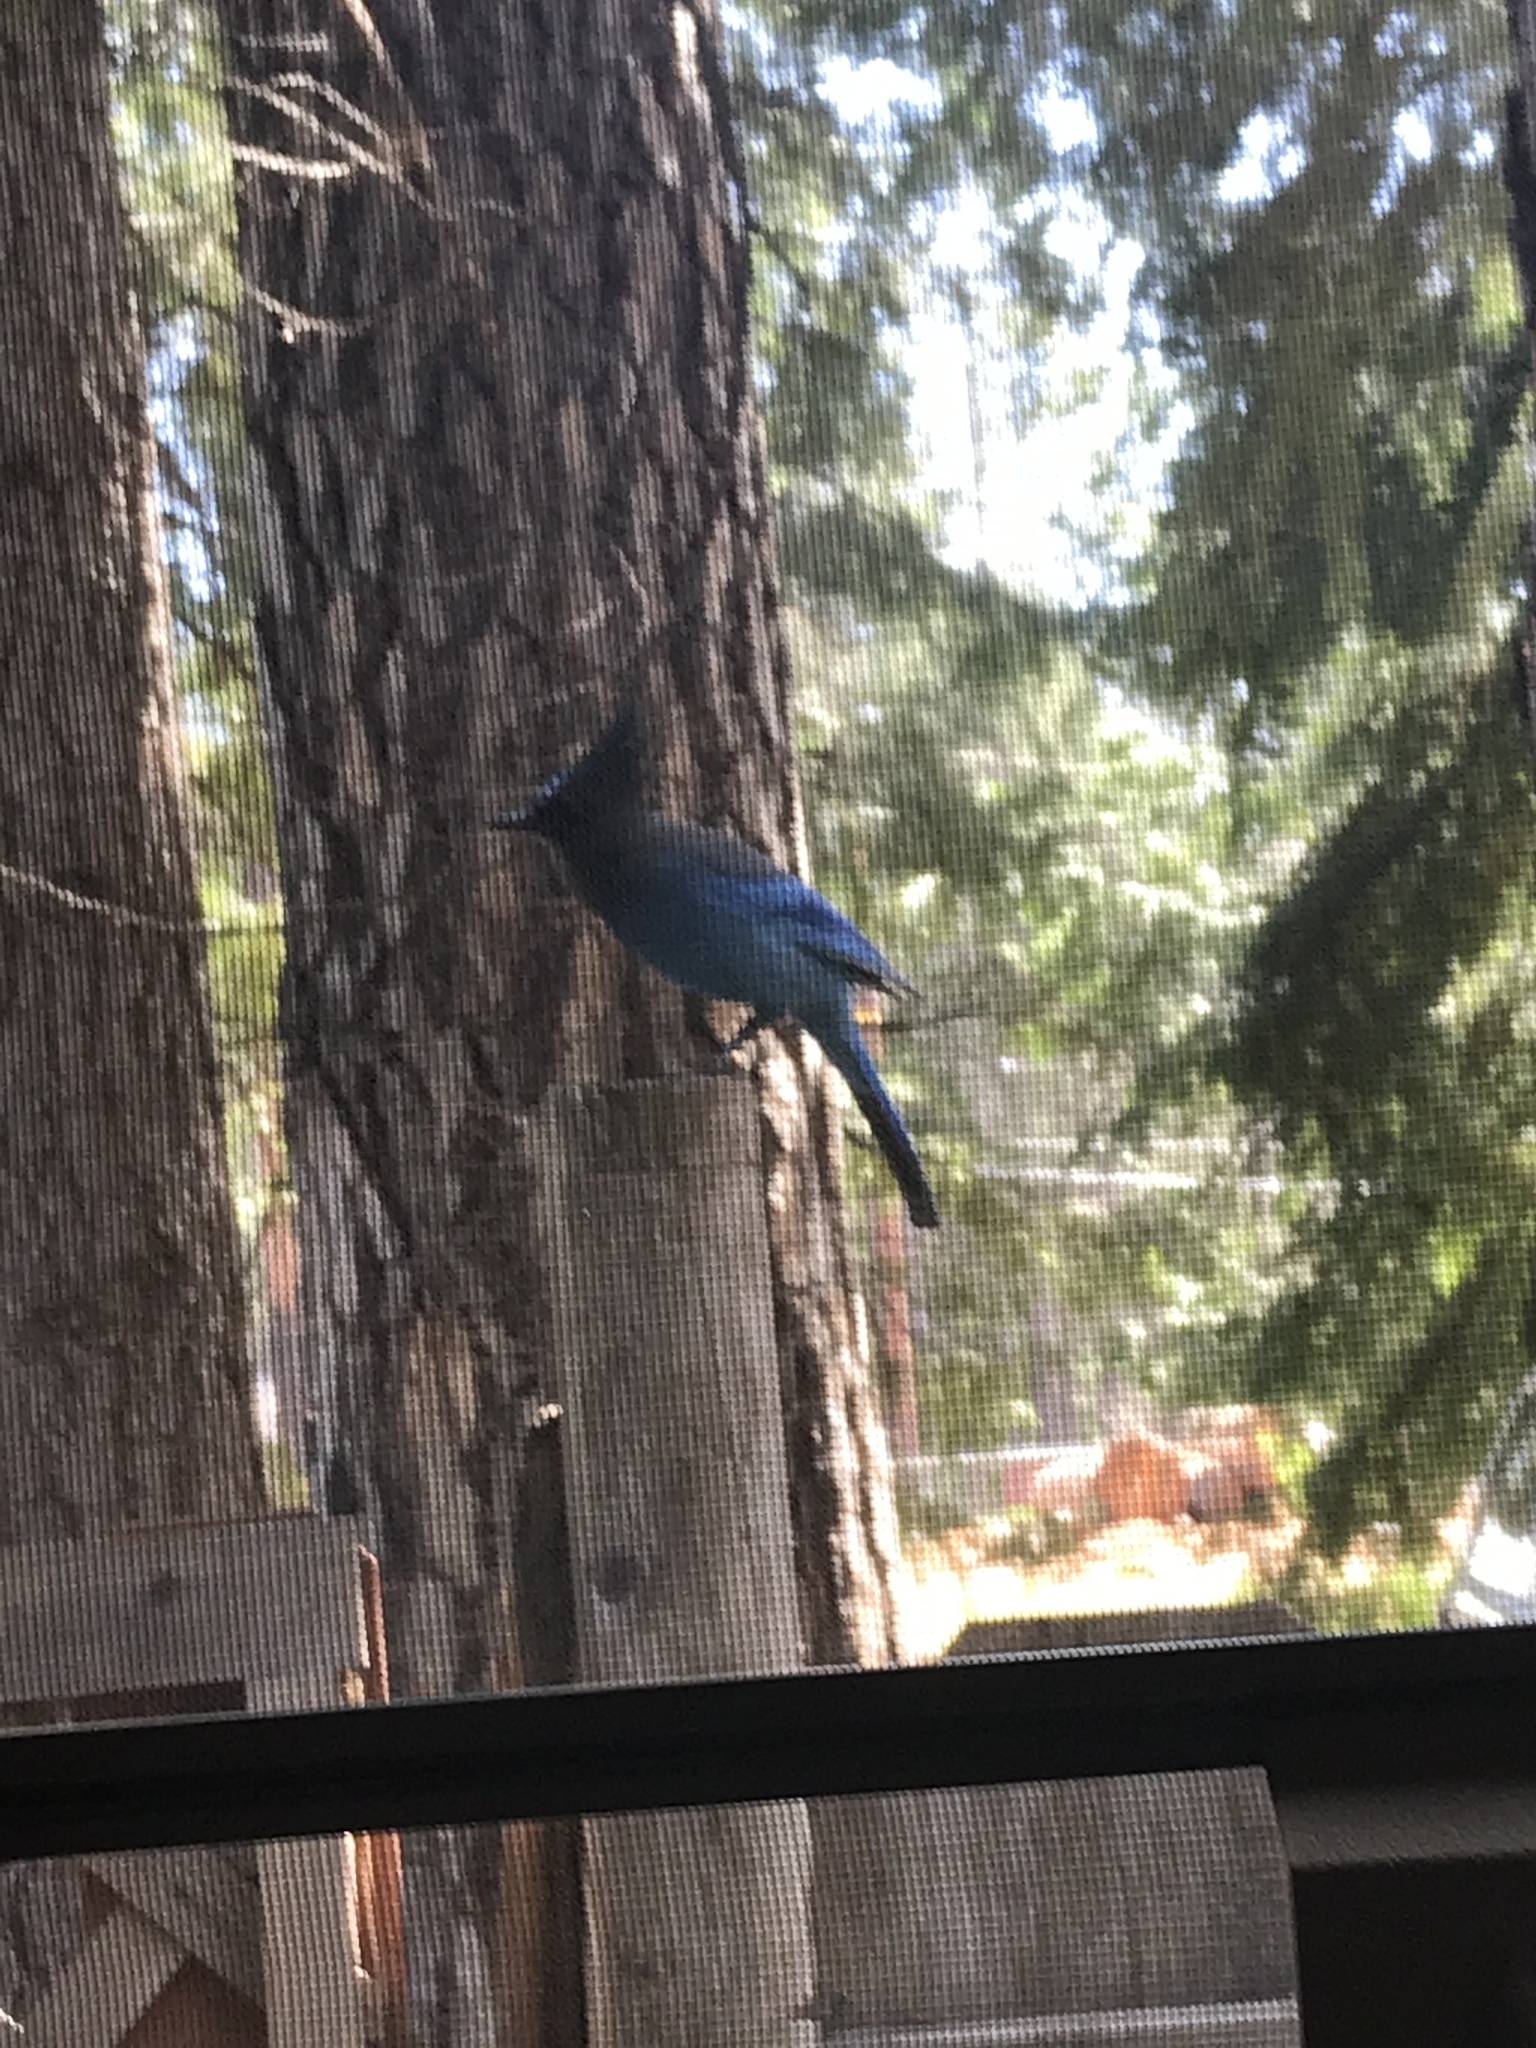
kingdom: Animalia
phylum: Chordata
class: Aves
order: Passeriformes
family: Corvidae
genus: Cyanocitta
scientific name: Cyanocitta stelleri
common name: Steller's jay
